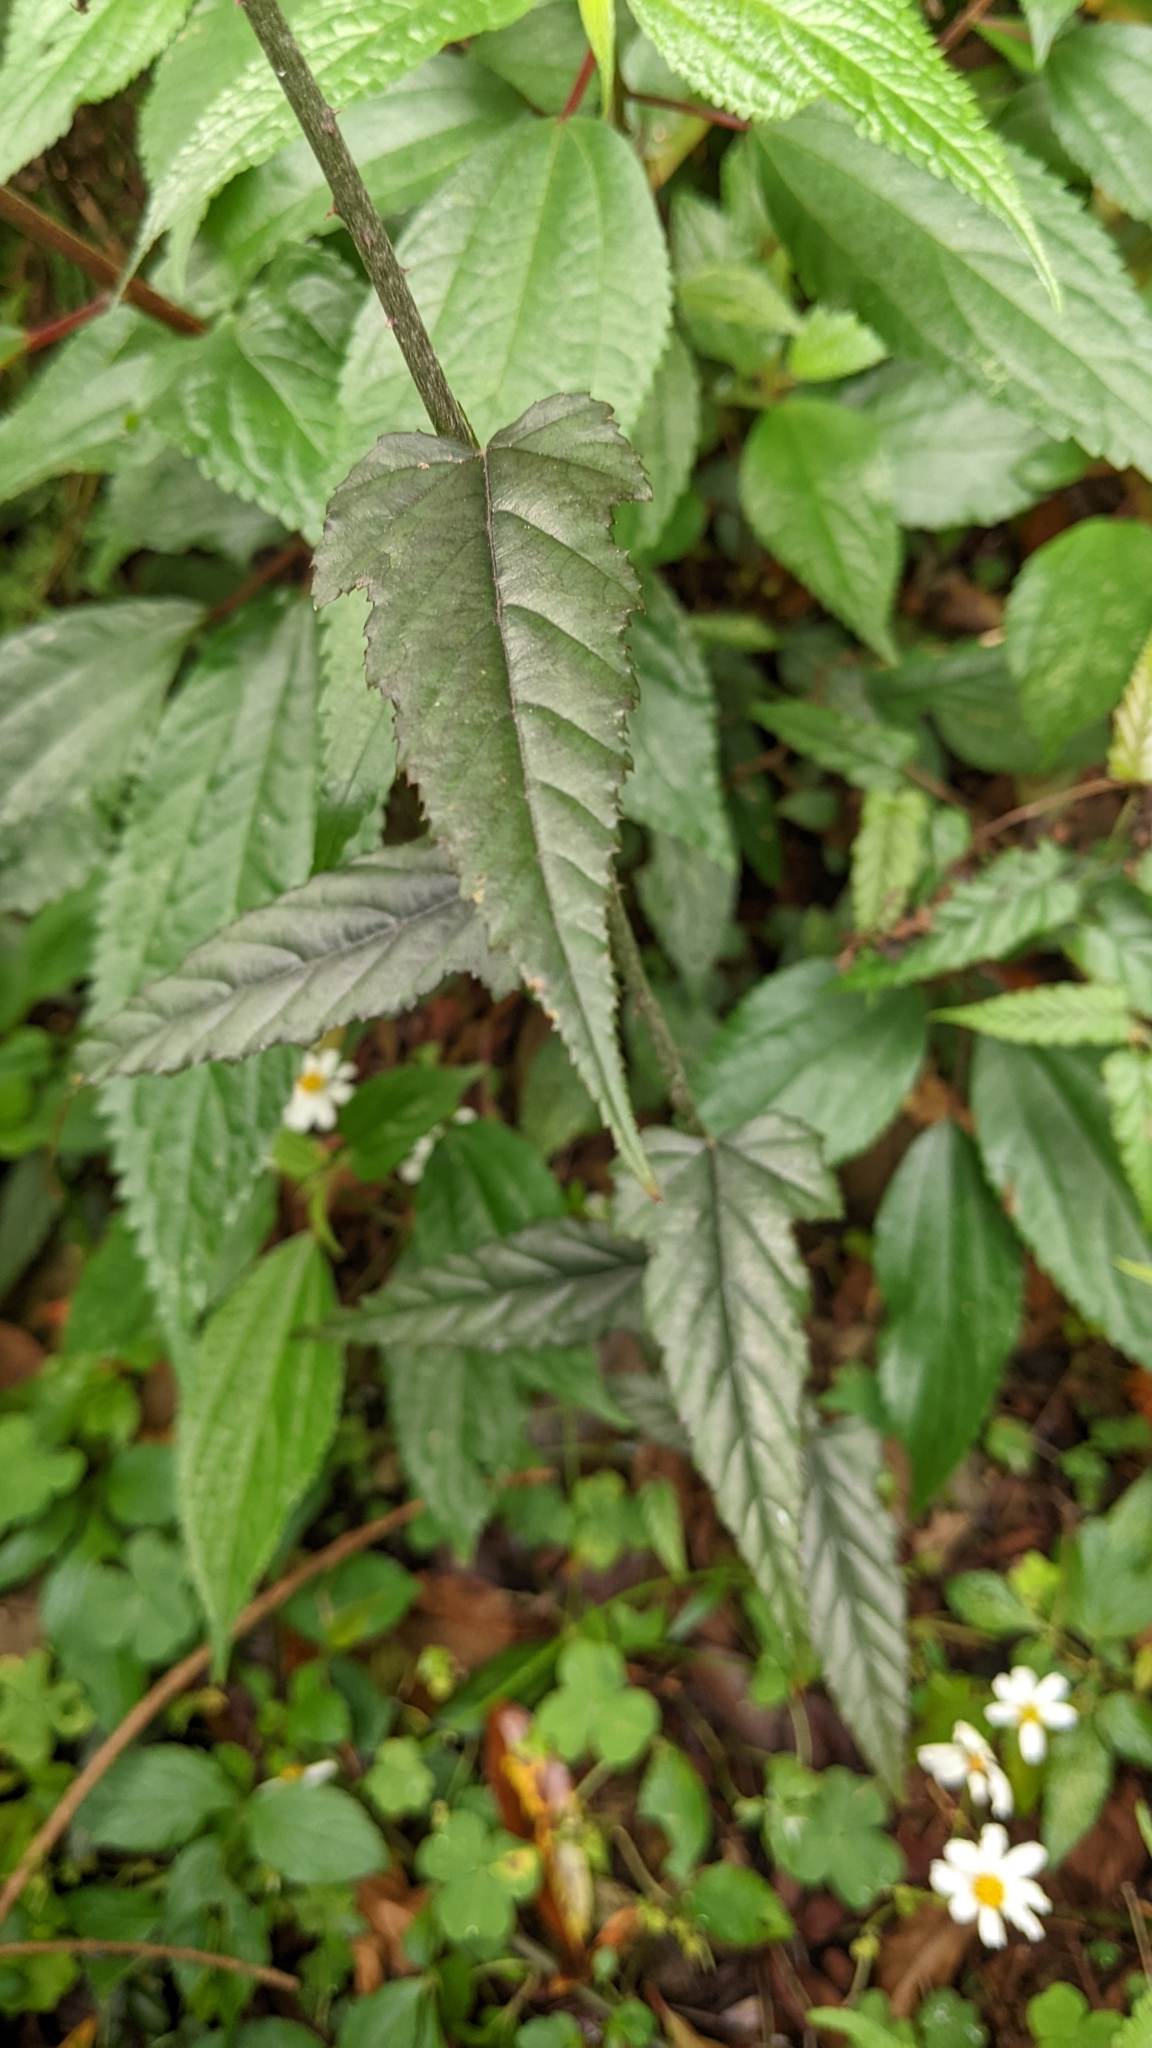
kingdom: Plantae
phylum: Tracheophyta
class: Magnoliopsida
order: Rosales
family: Rosaceae
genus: Rubus
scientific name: Rubus swinhoei
